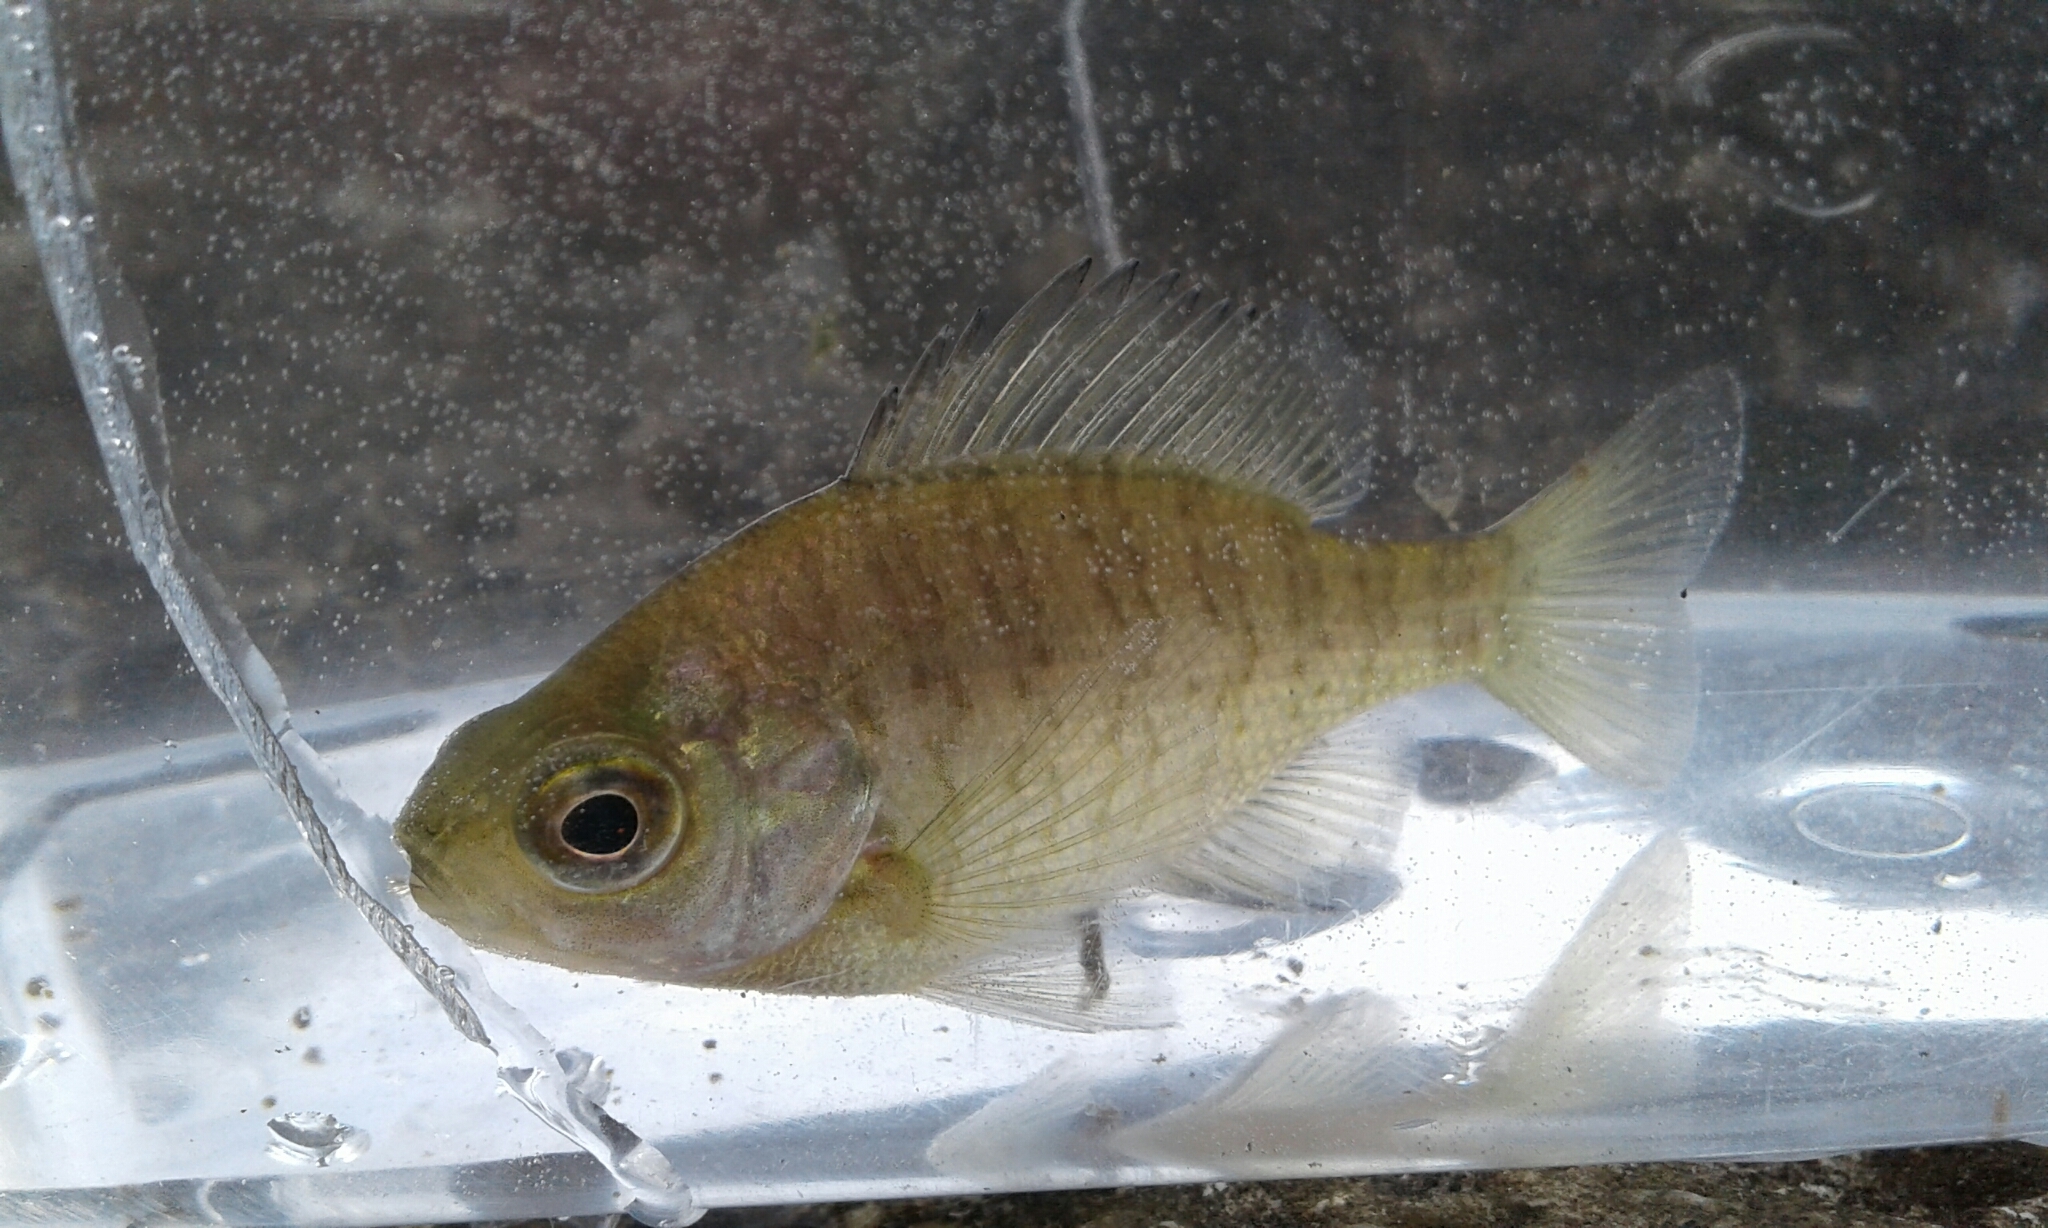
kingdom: Animalia
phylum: Chordata
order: Perciformes
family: Centrarchidae
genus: Lepomis
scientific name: Lepomis macrochirus
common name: Bluegill
